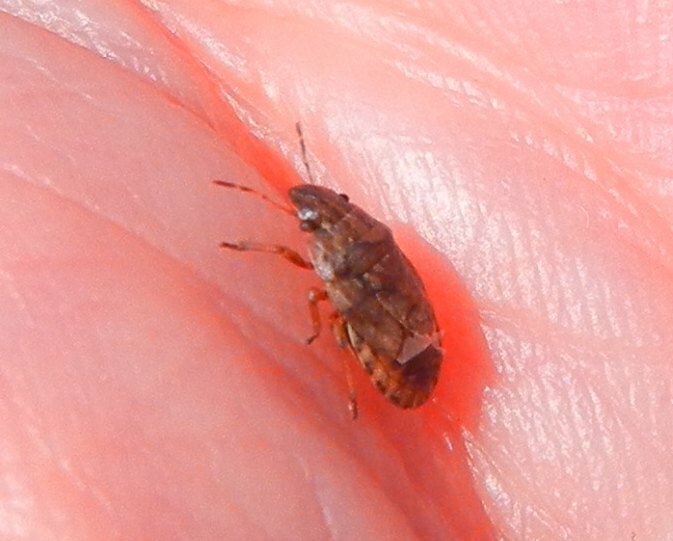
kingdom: Animalia
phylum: Arthropoda
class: Insecta
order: Hemiptera
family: Pentatomidae
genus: Sciocoris
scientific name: Sciocoris cursitans
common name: Sandrunner
